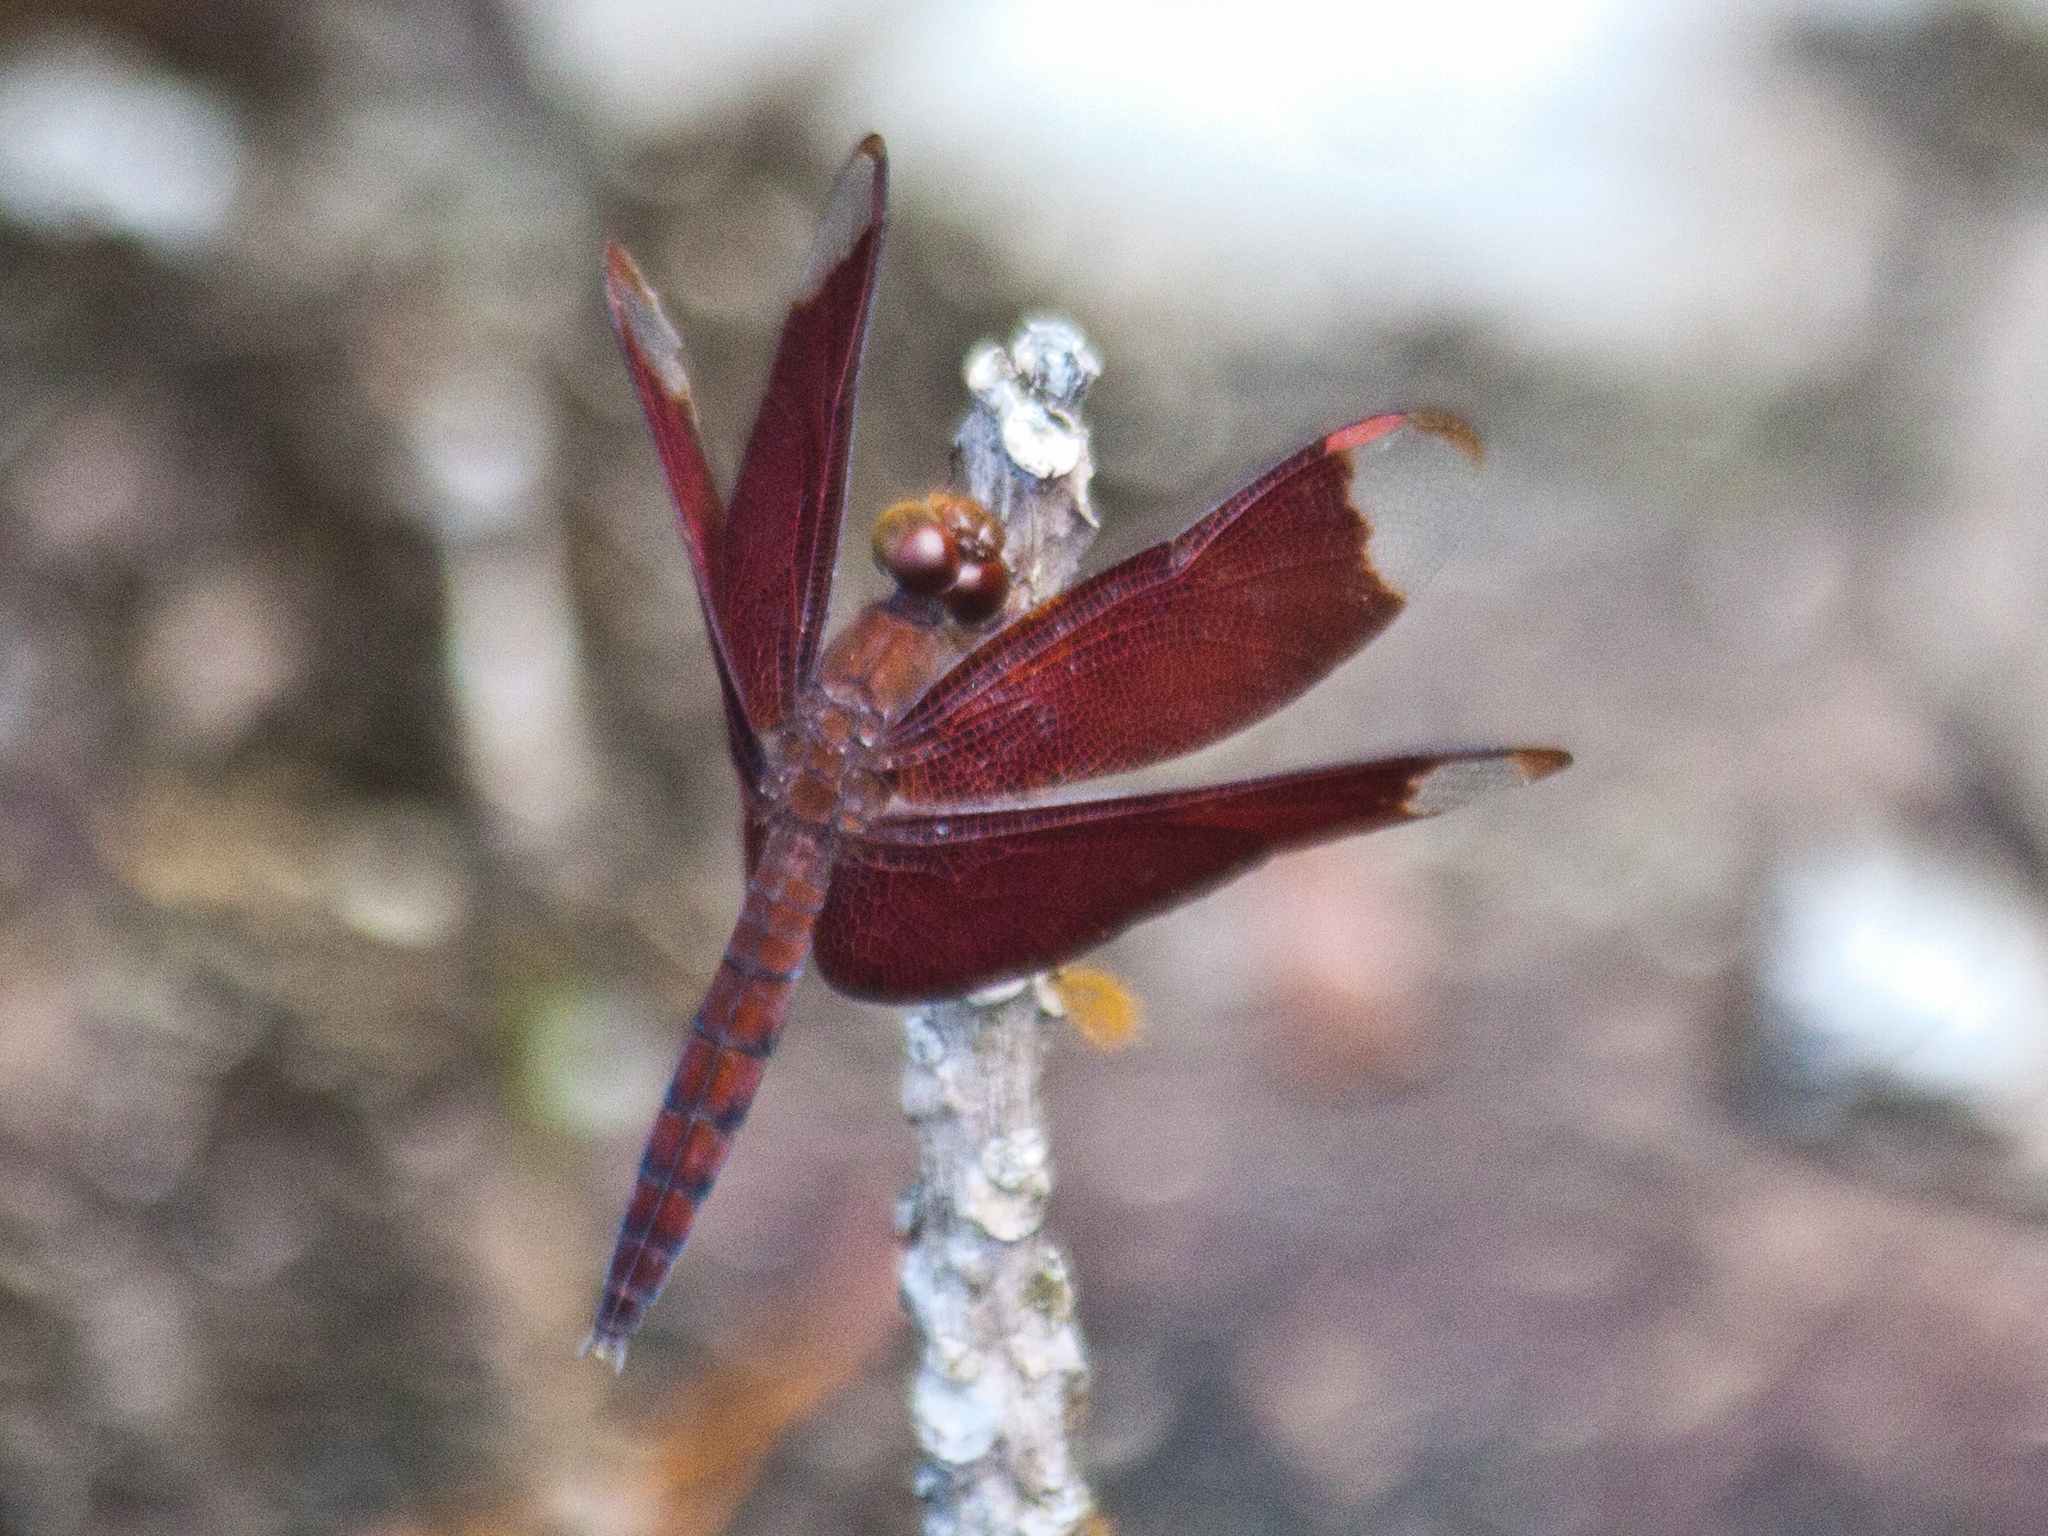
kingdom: Animalia
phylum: Arthropoda
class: Insecta
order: Odonata
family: Libellulidae
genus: Neurothemis
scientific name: Neurothemis fulvia
